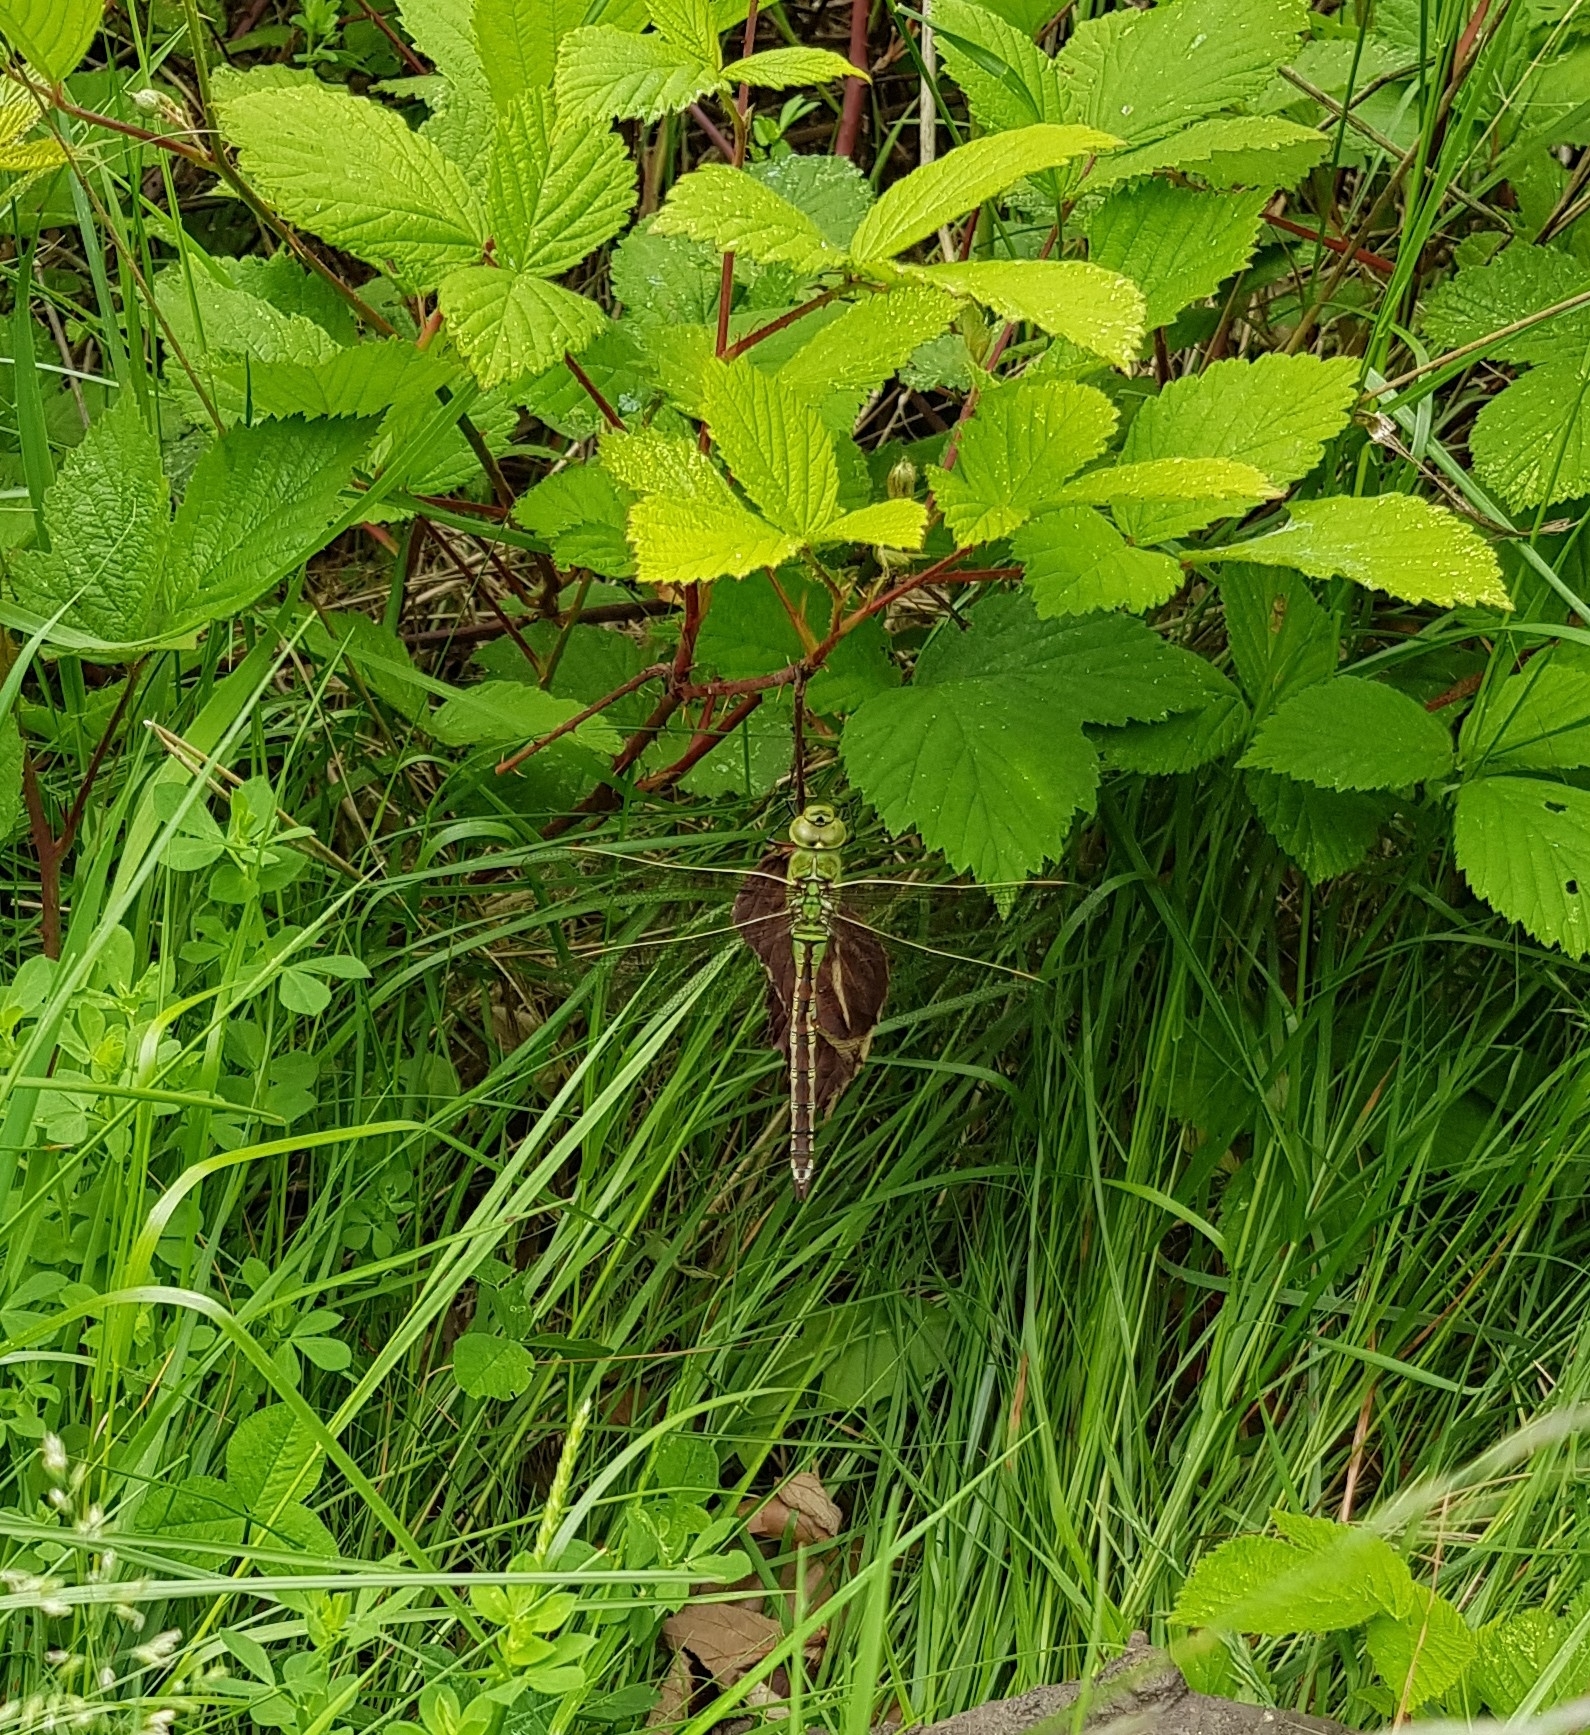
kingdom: Animalia
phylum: Arthropoda
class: Insecta
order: Odonata
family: Aeshnidae
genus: Anax
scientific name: Anax imperator
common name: Emperor dragonfly
